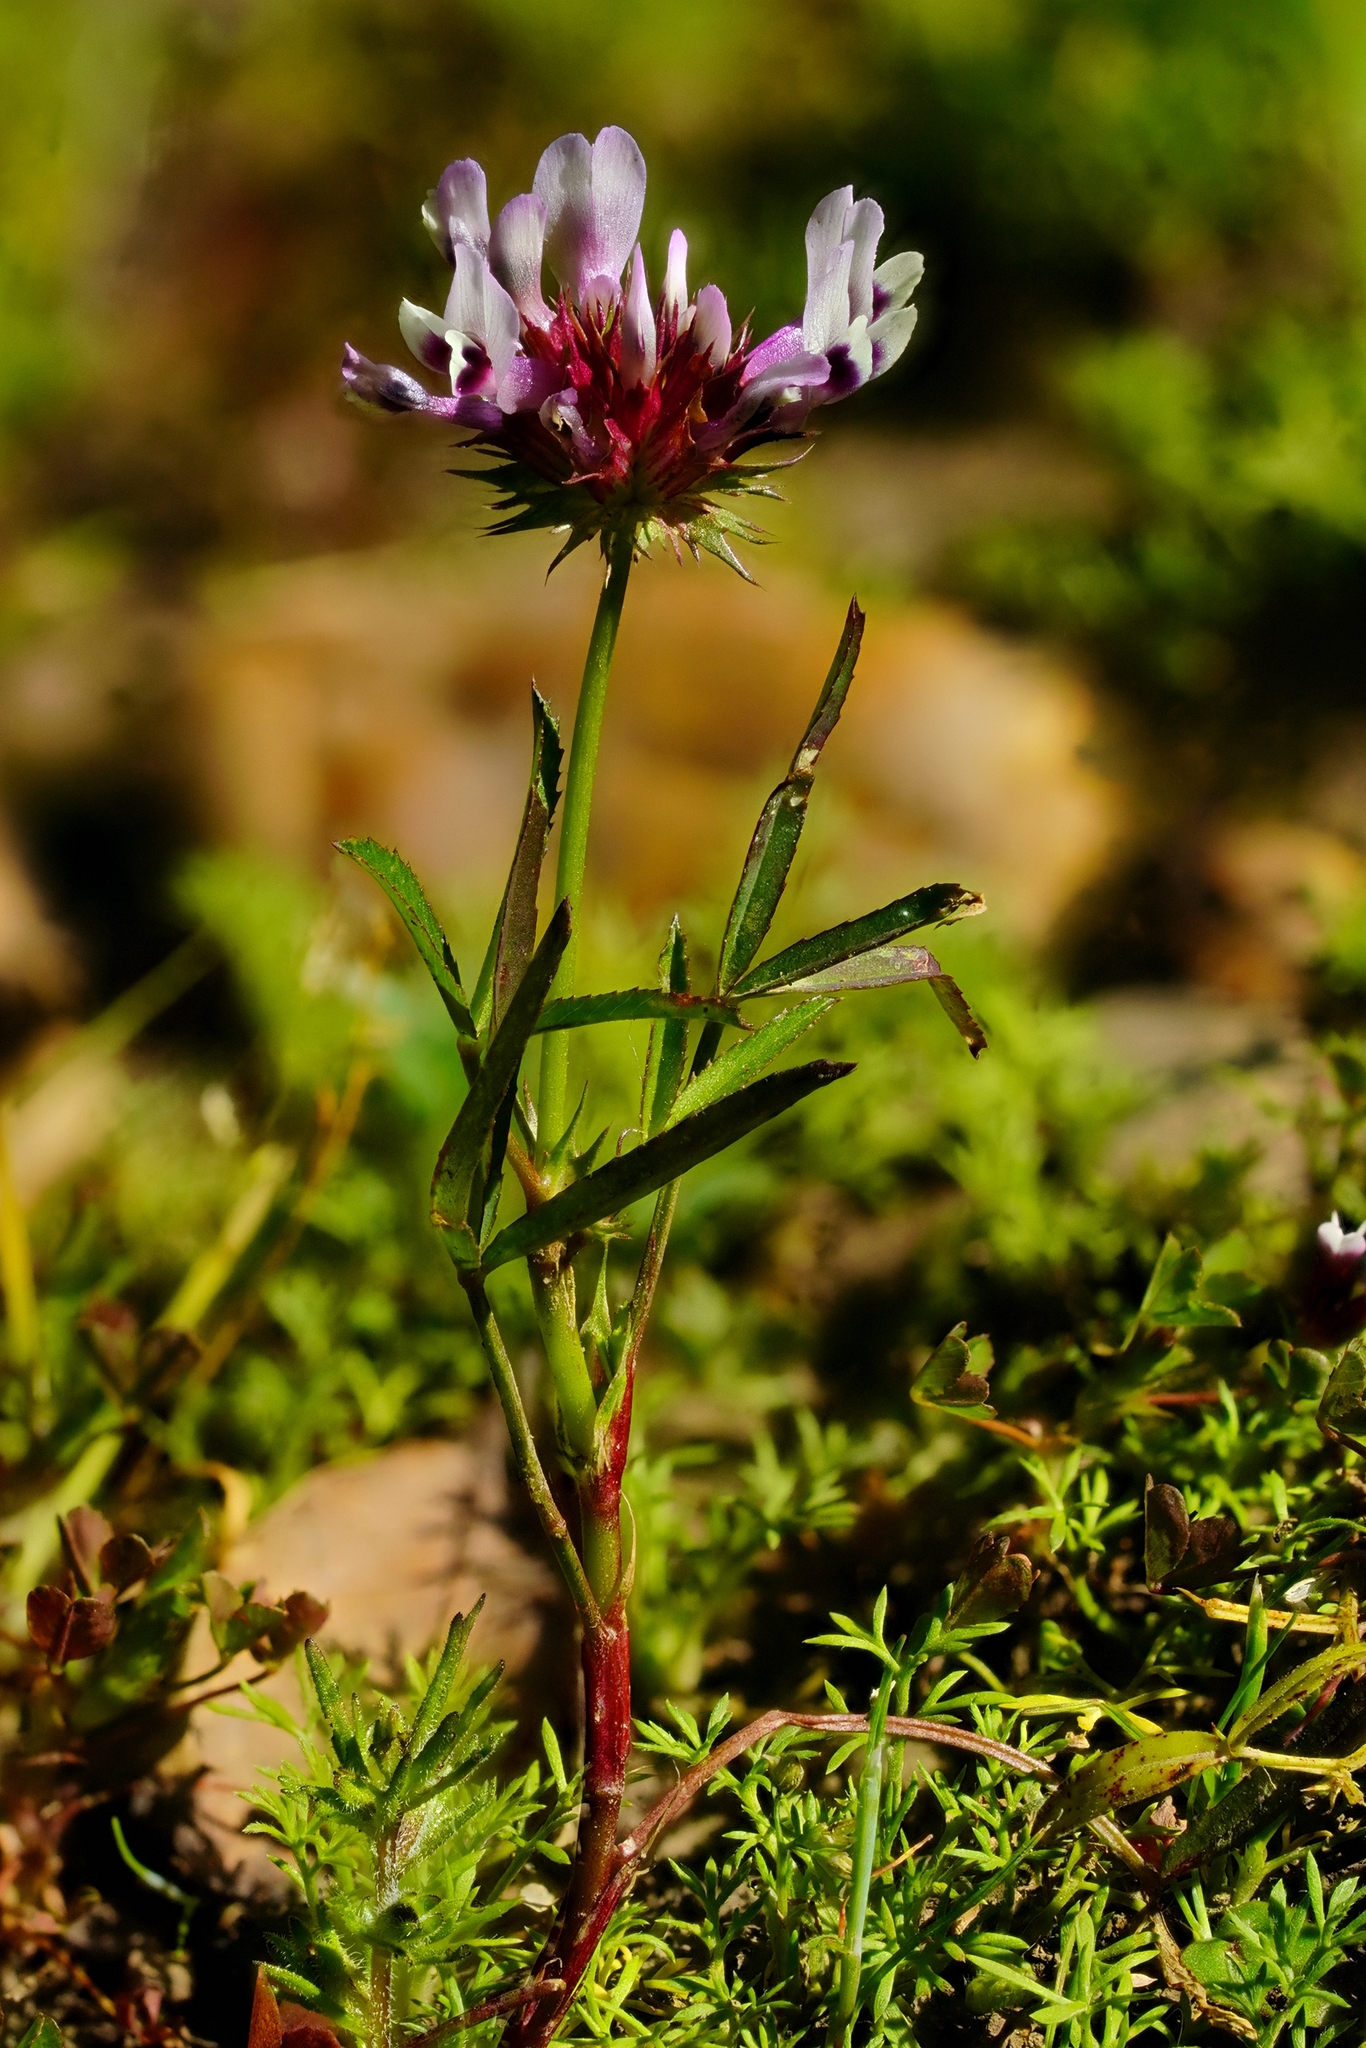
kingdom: Plantae
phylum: Tracheophyta
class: Magnoliopsida
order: Fabales
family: Fabaceae
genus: Trifolium
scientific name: Trifolium willdenovii
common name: Tomcat clover
